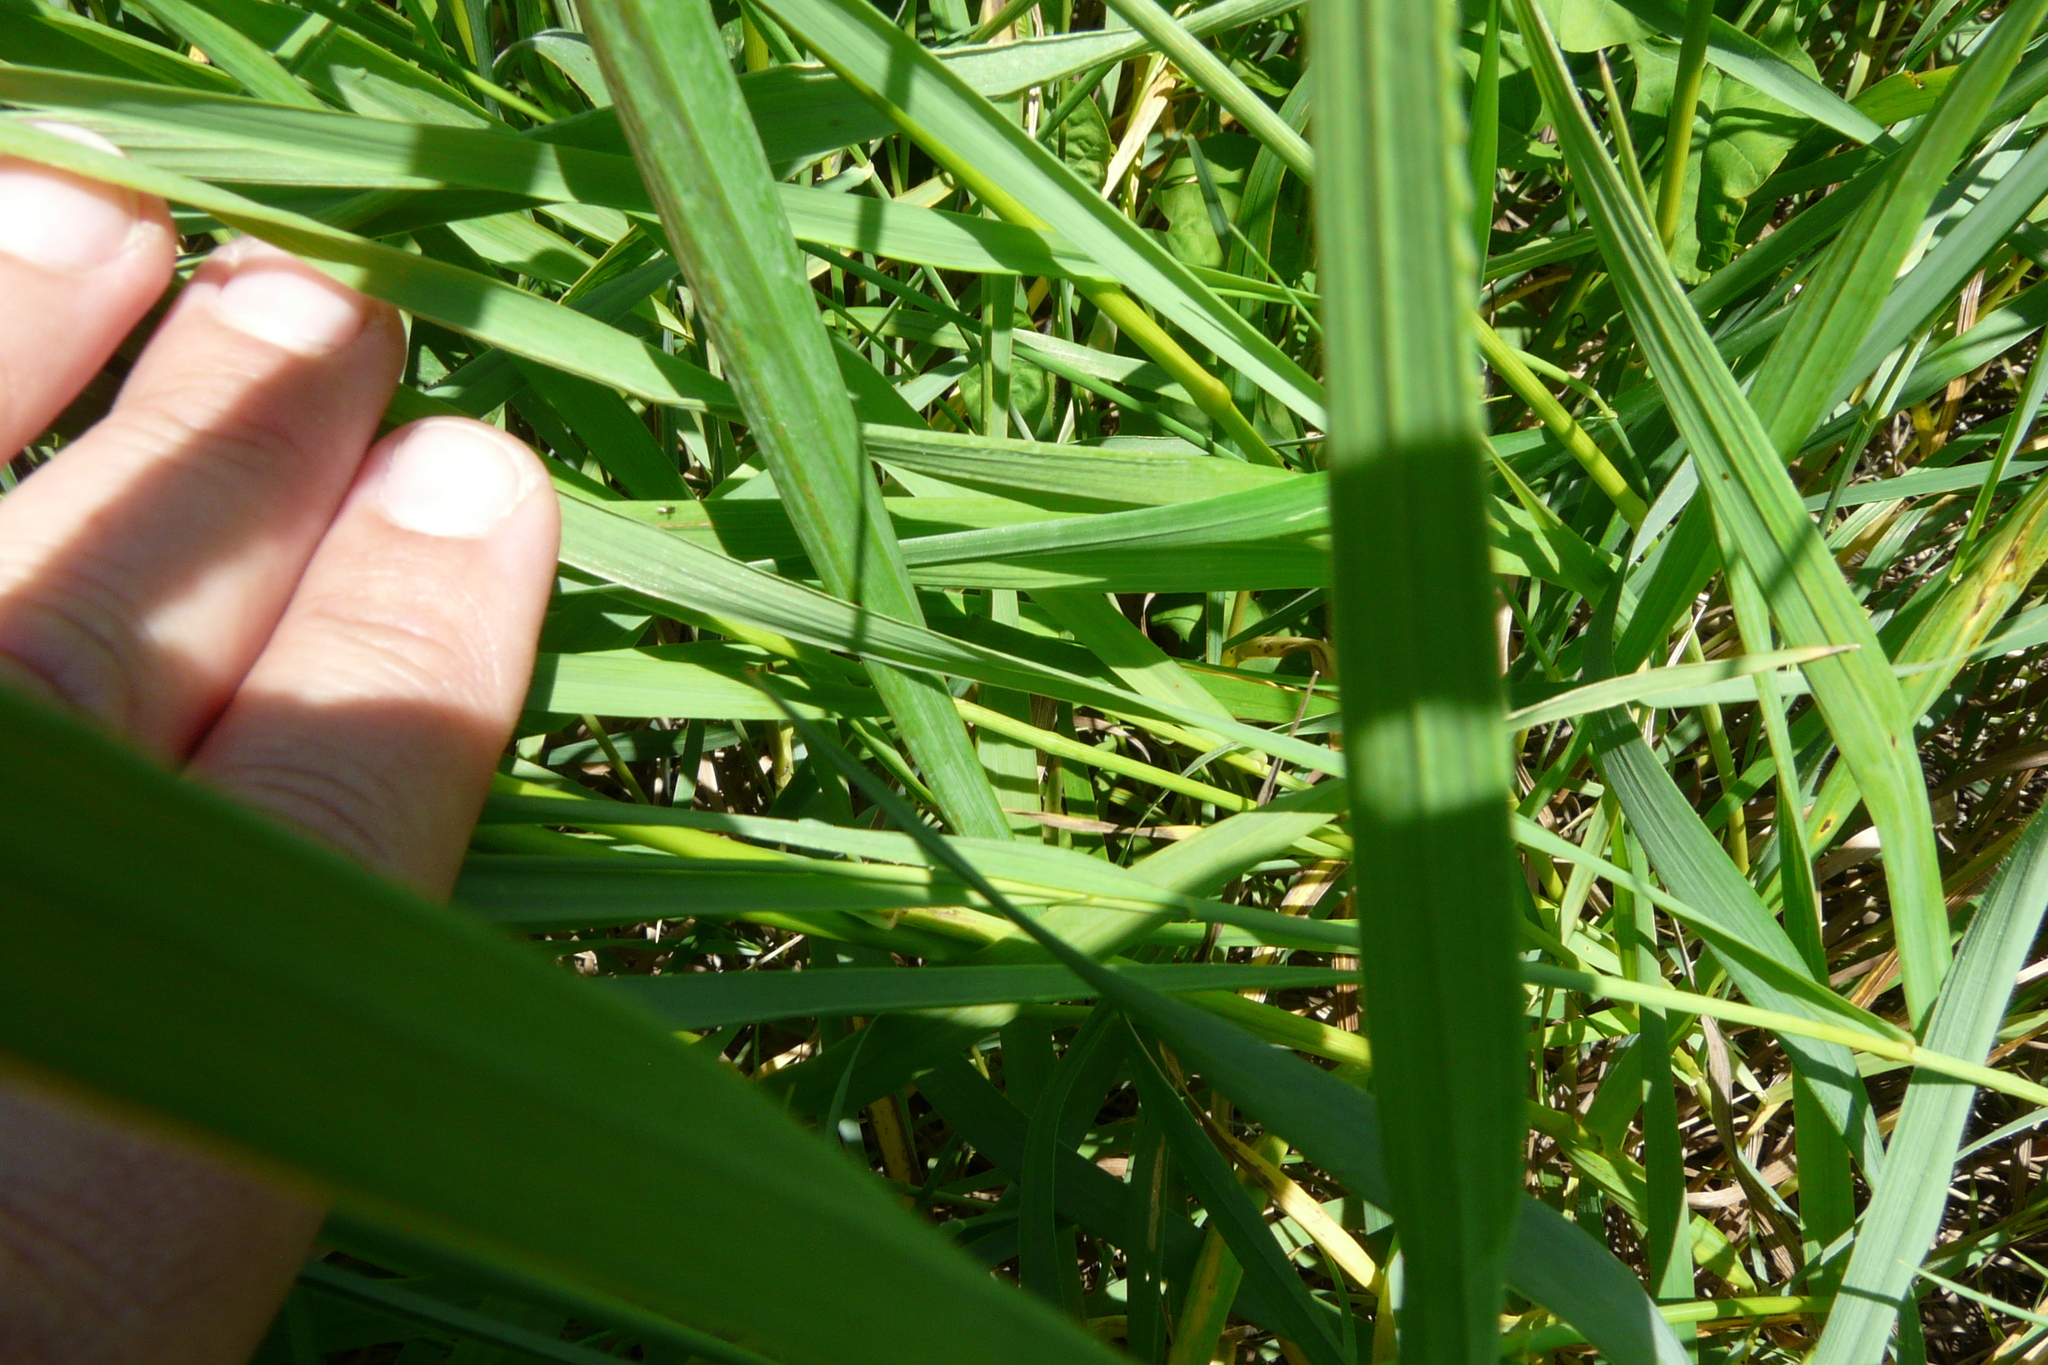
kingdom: Plantae
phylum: Tracheophyta
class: Liliopsida
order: Poales
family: Poaceae
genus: Bromus
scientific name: Bromus inermis
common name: Smooth brome
